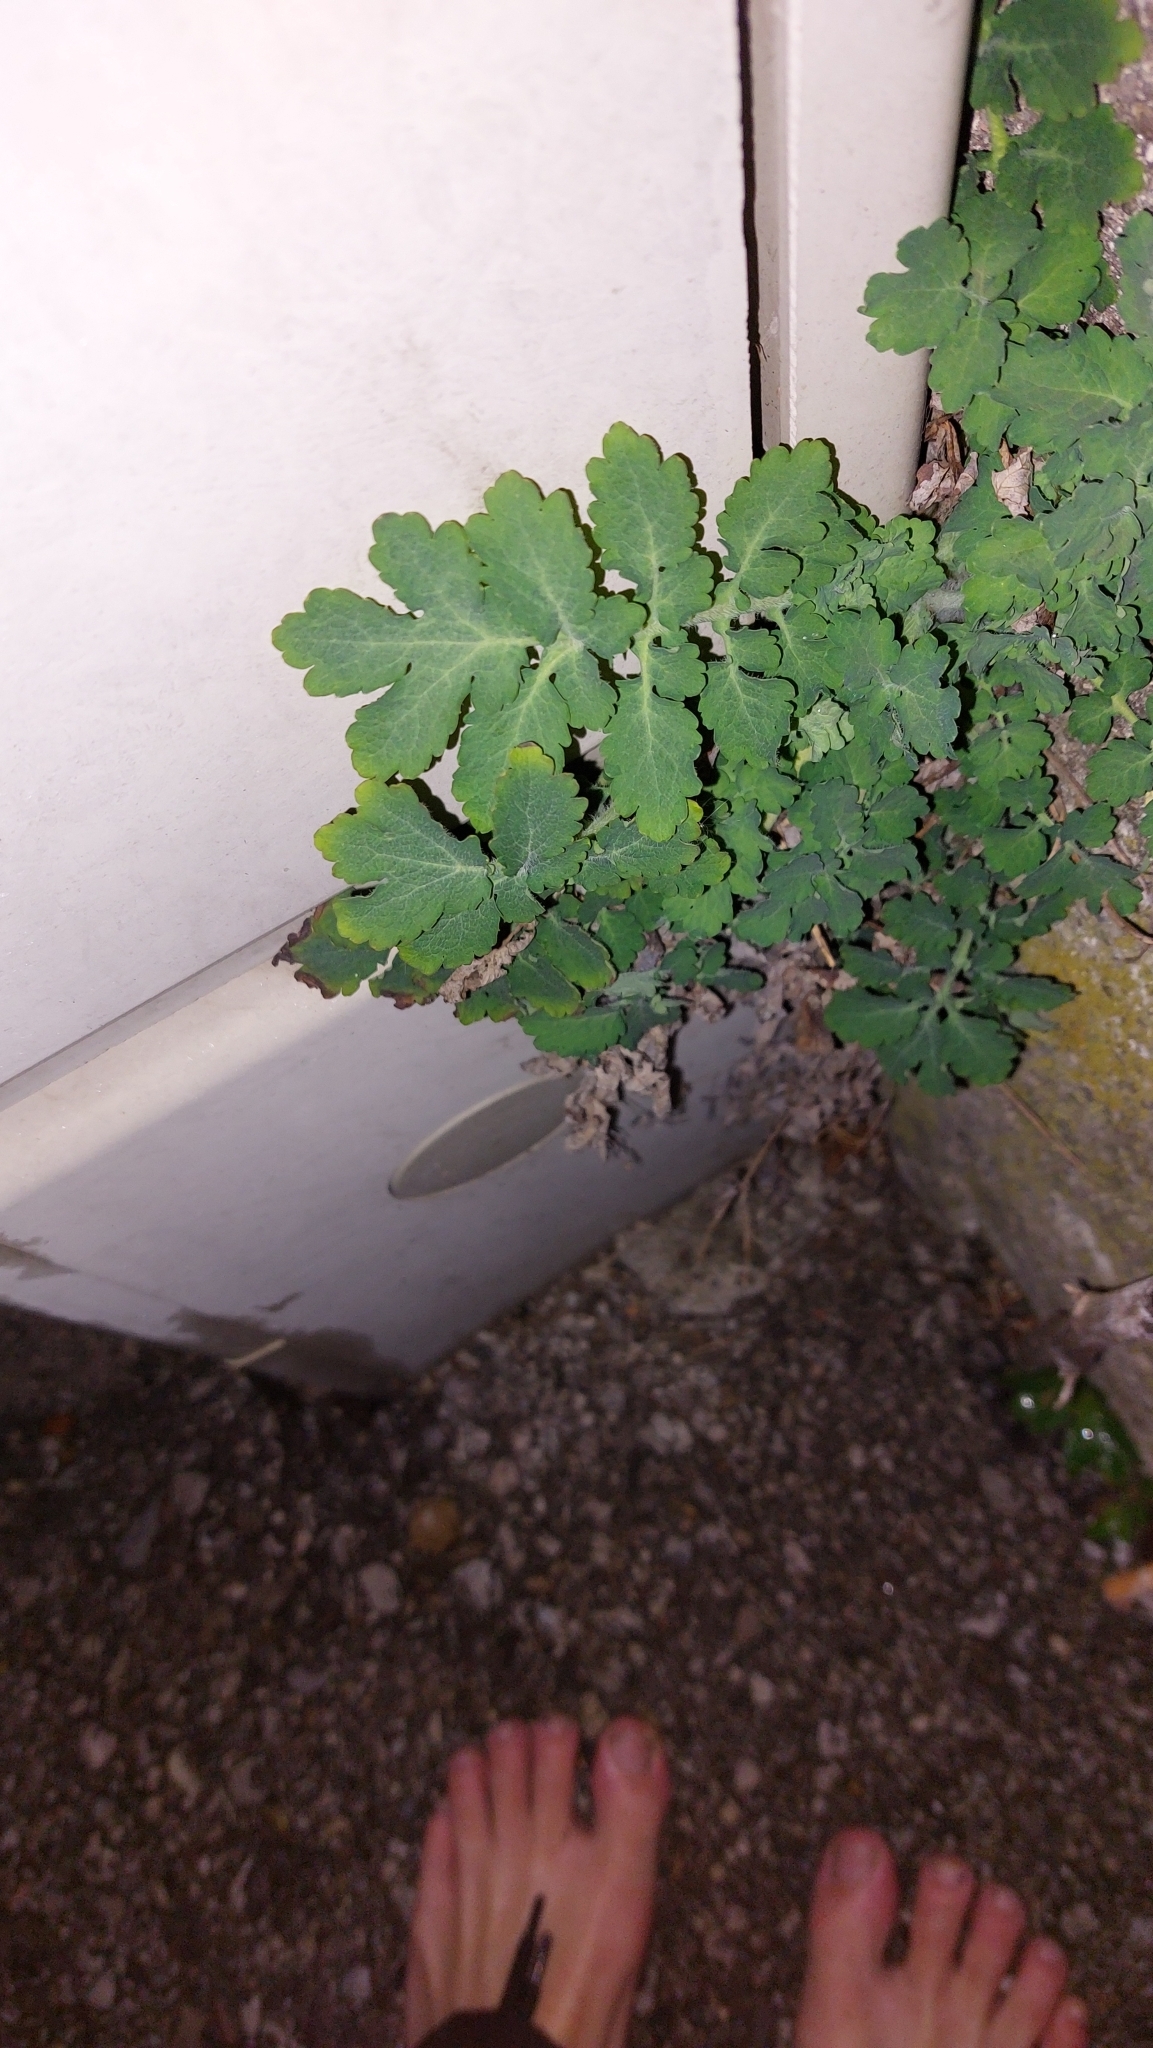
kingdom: Plantae
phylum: Tracheophyta
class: Magnoliopsida
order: Ranunculales
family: Papaveraceae
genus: Chelidonium
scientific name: Chelidonium majus
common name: Greater celandine
